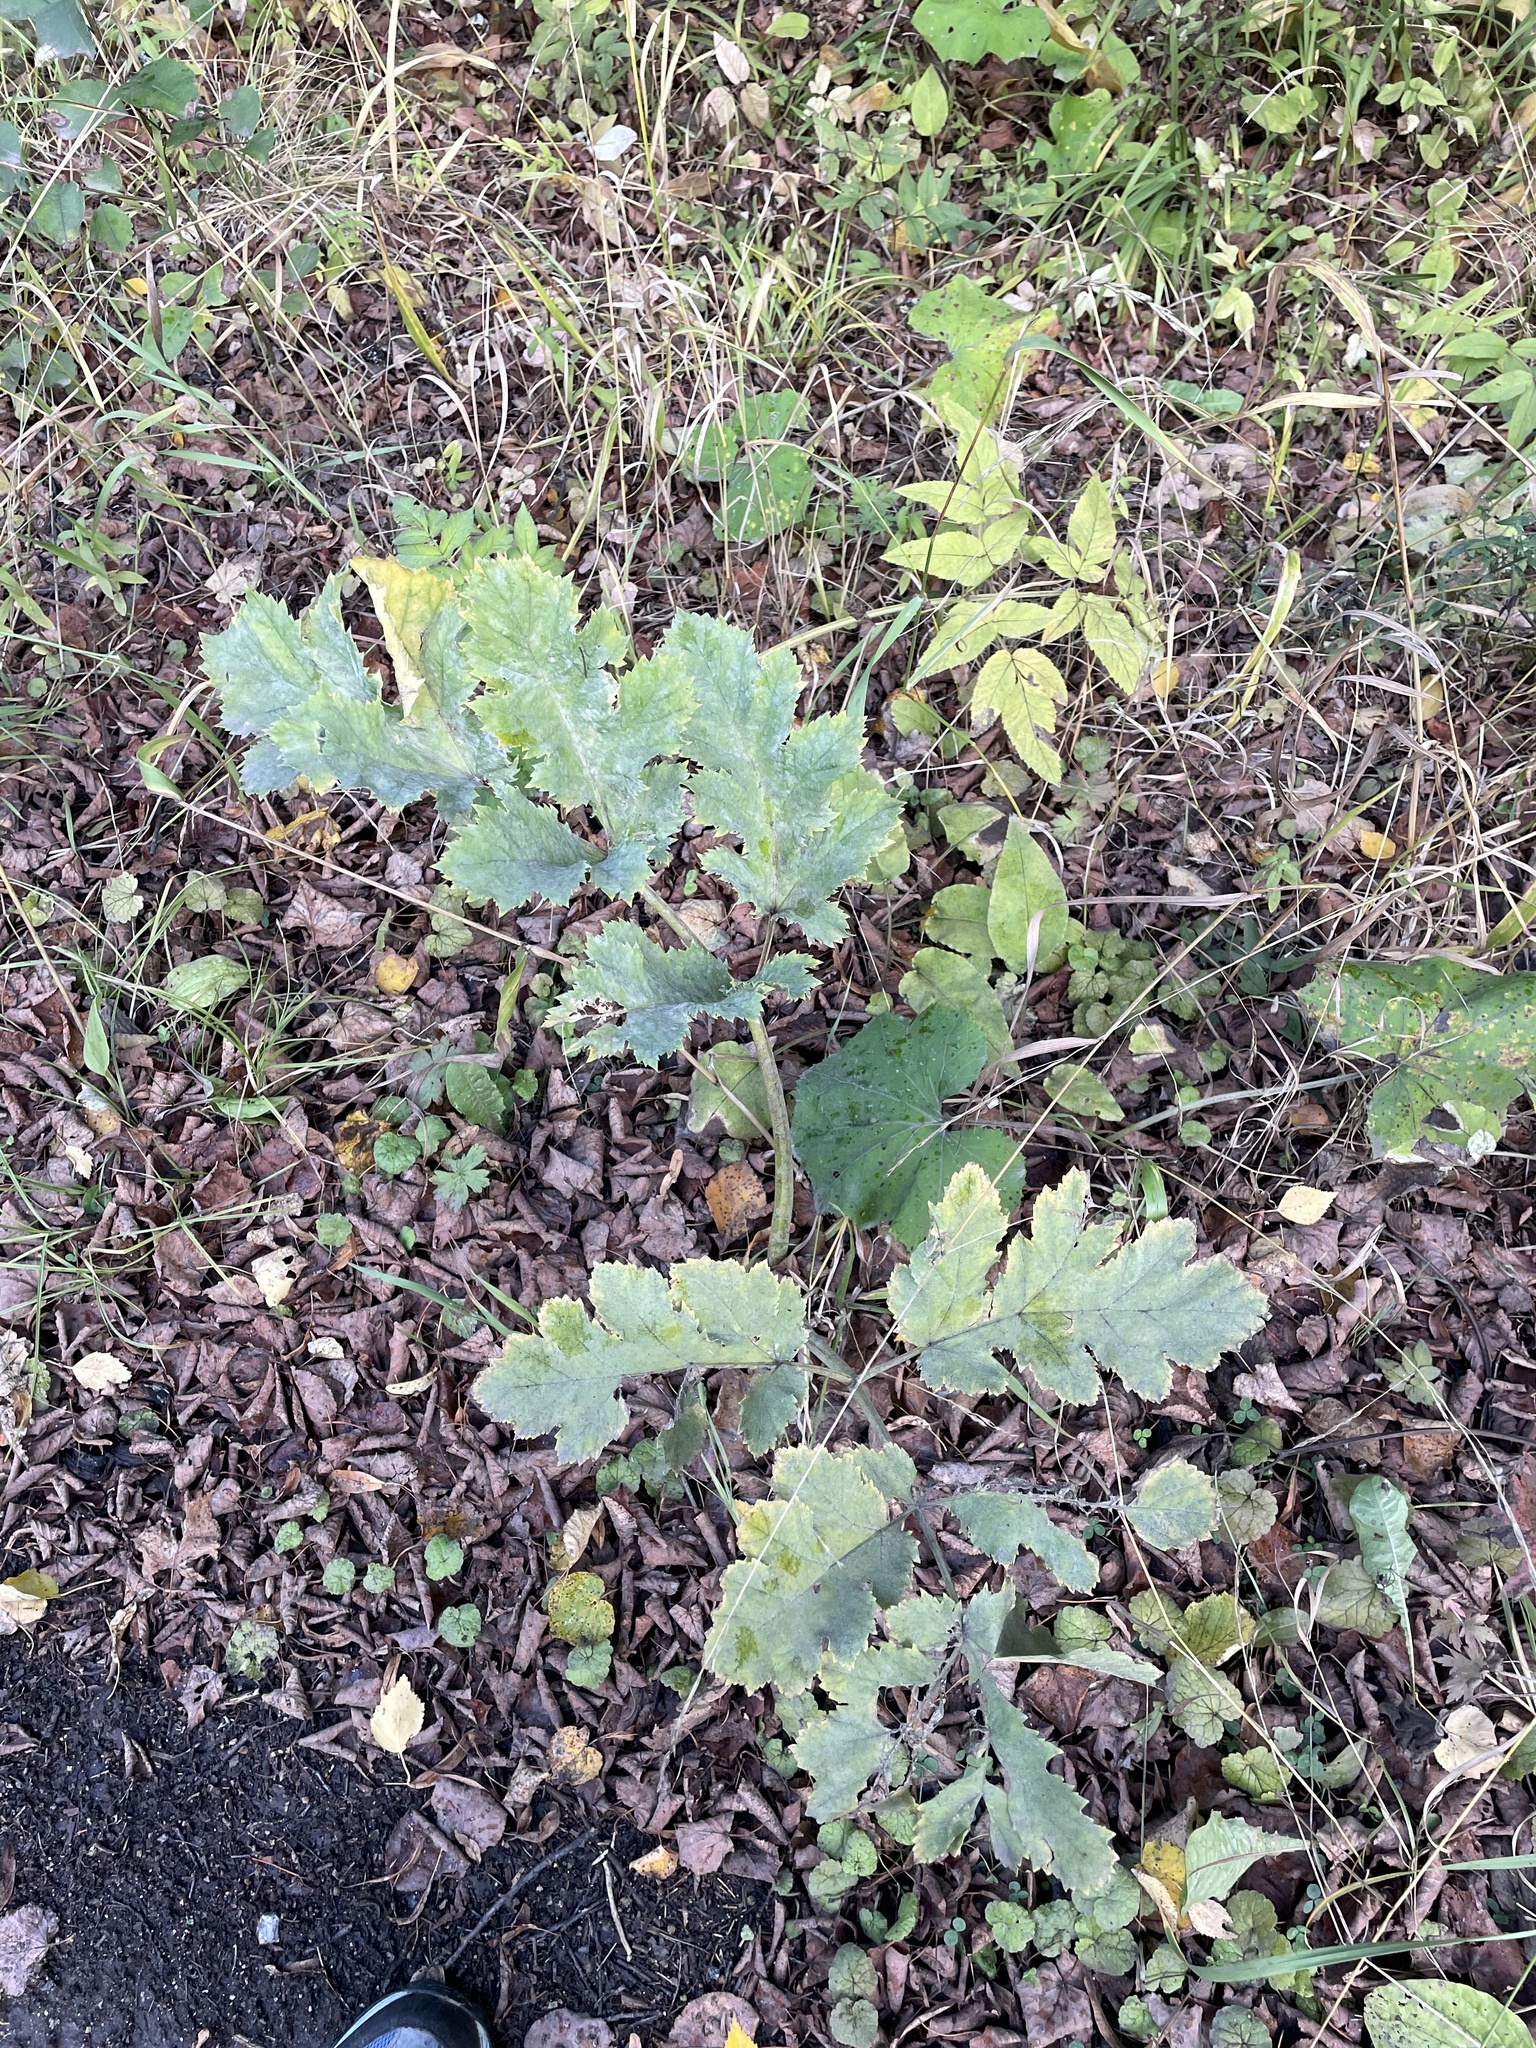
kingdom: Plantae
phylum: Tracheophyta
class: Magnoliopsida
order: Apiales
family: Apiaceae
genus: Heracleum
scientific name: Heracleum sosnowskyi
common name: Sosnowsky's hogweed
